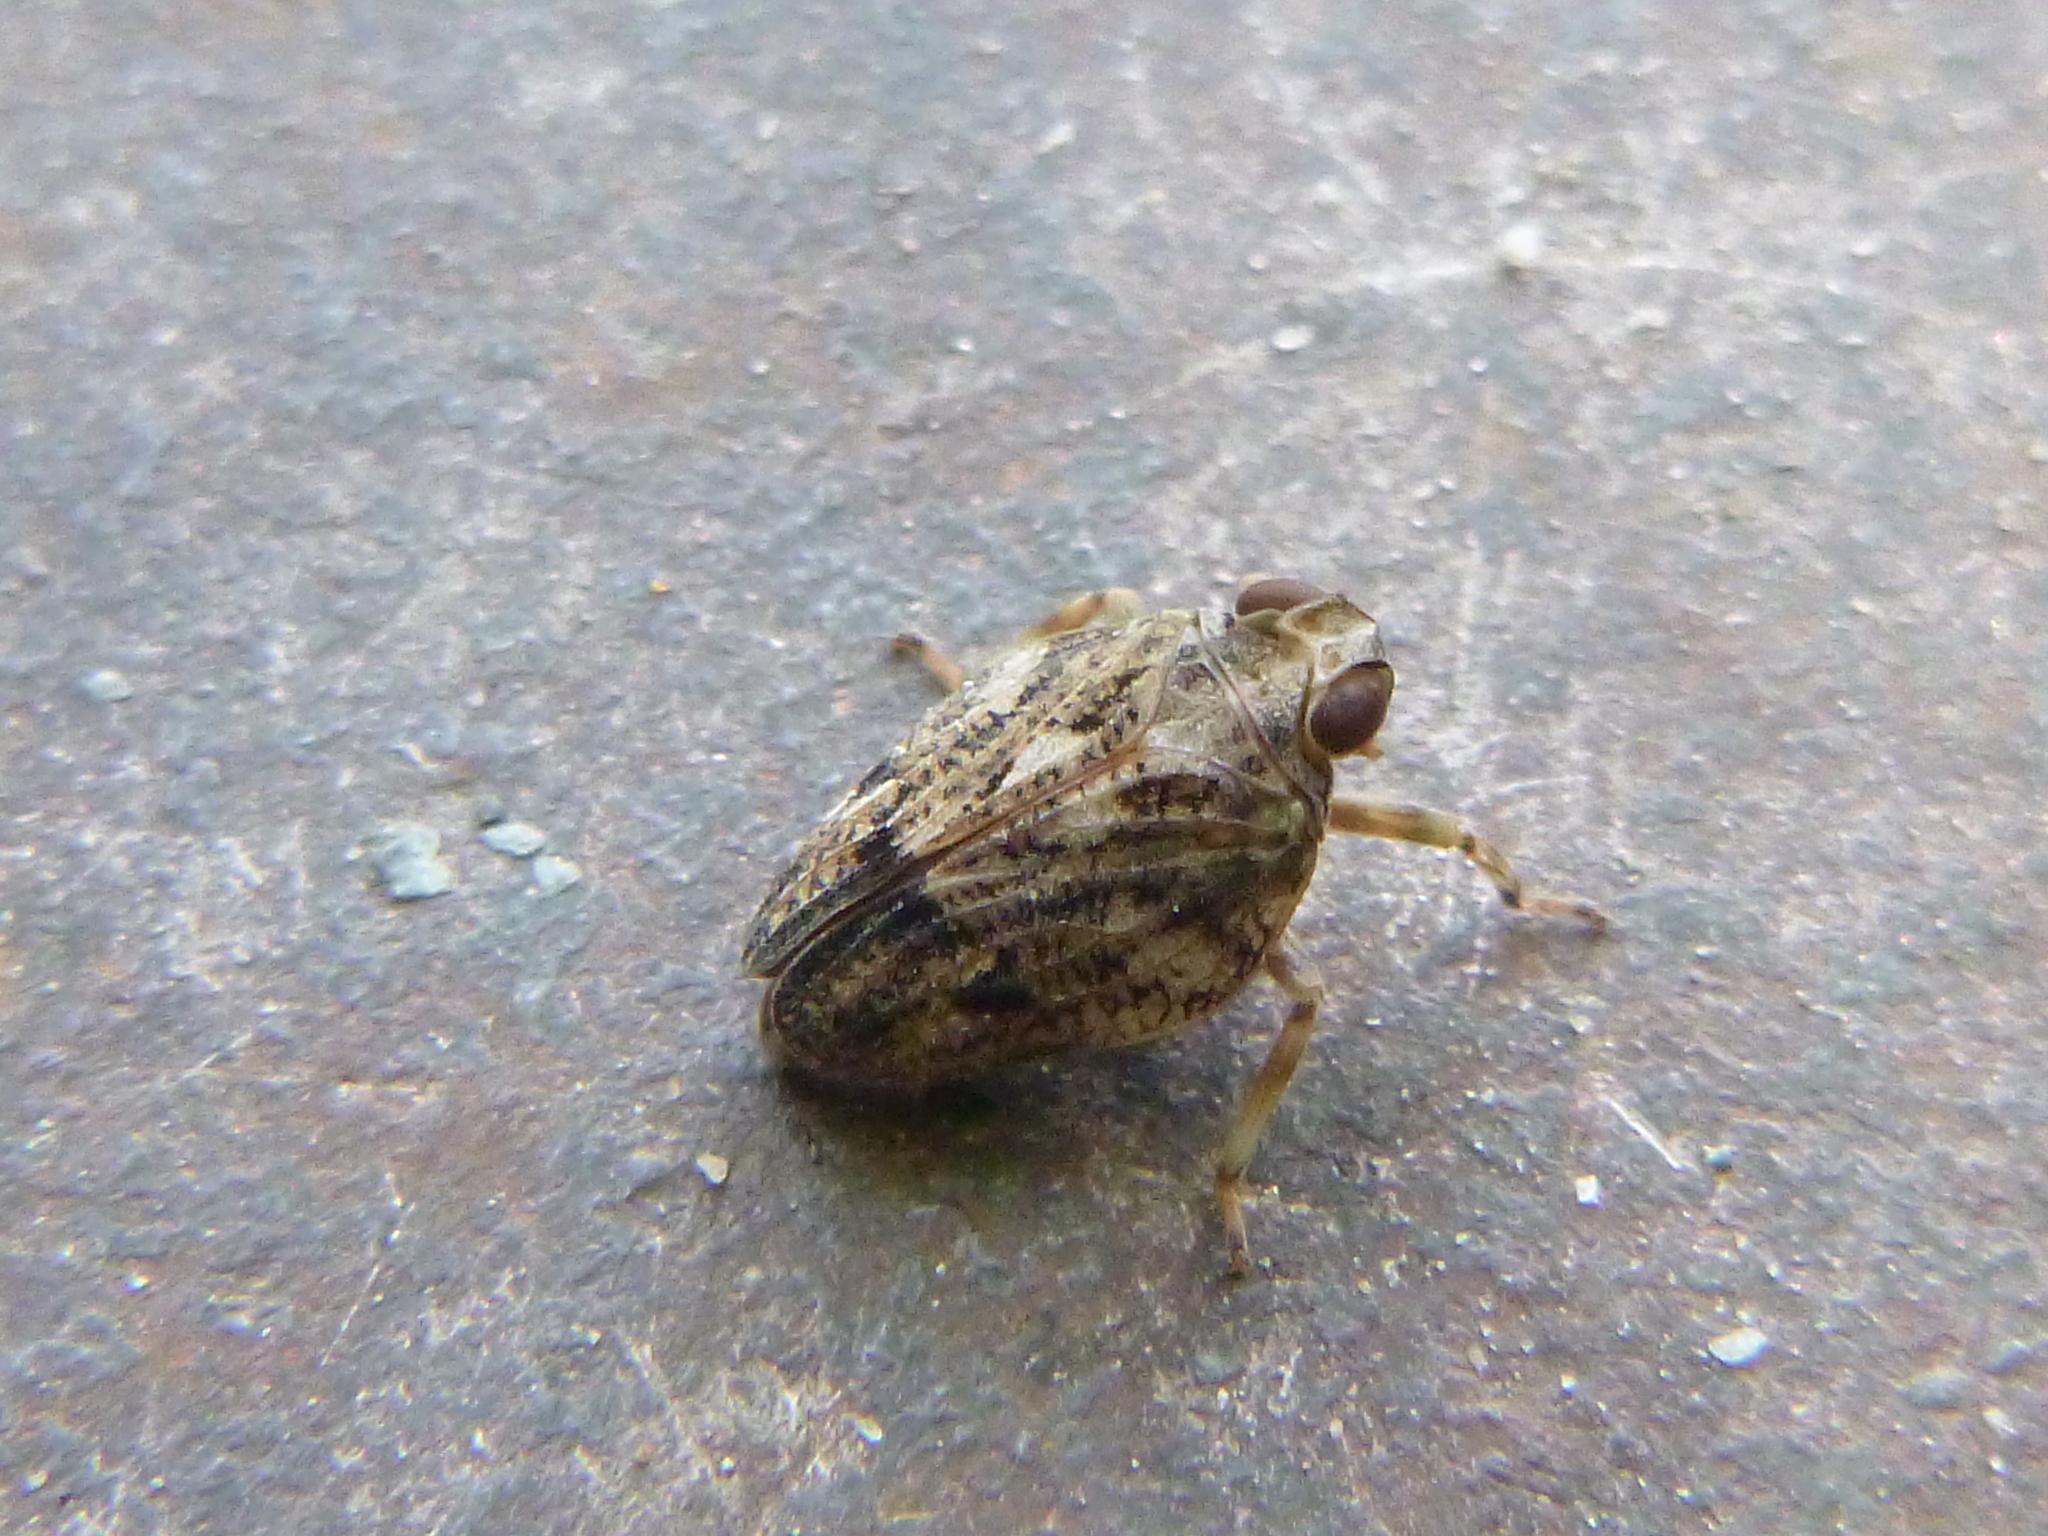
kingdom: Animalia
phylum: Arthropoda
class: Insecta
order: Hemiptera
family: Issidae
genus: Issus
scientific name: Issus coleoptratus
